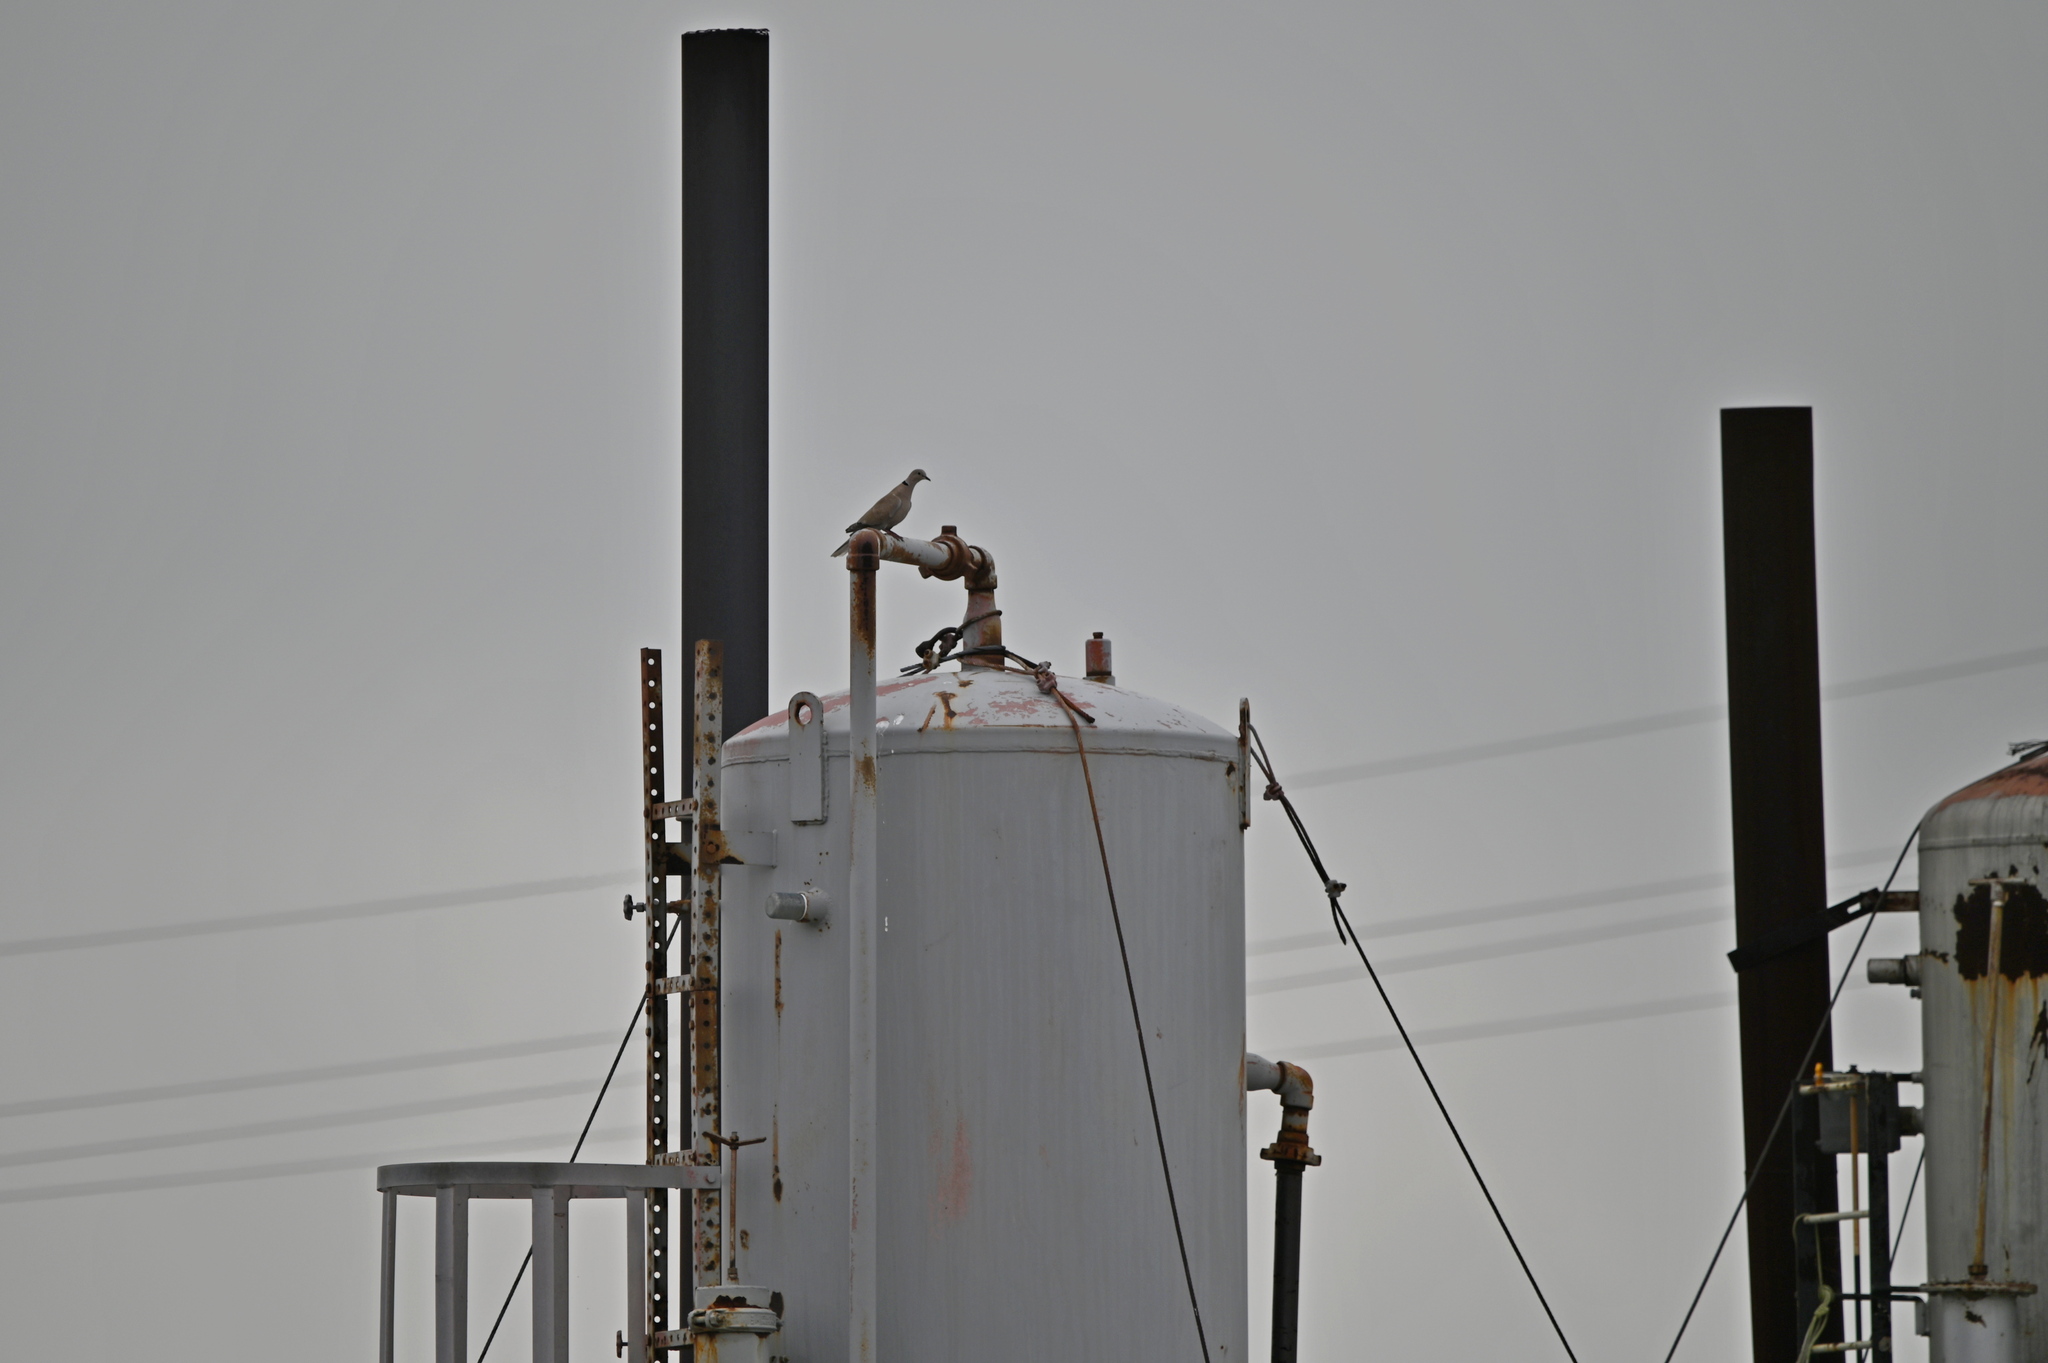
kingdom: Animalia
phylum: Chordata
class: Aves
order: Columbiformes
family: Columbidae
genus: Streptopelia
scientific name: Streptopelia decaocto
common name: Eurasian collared dove
